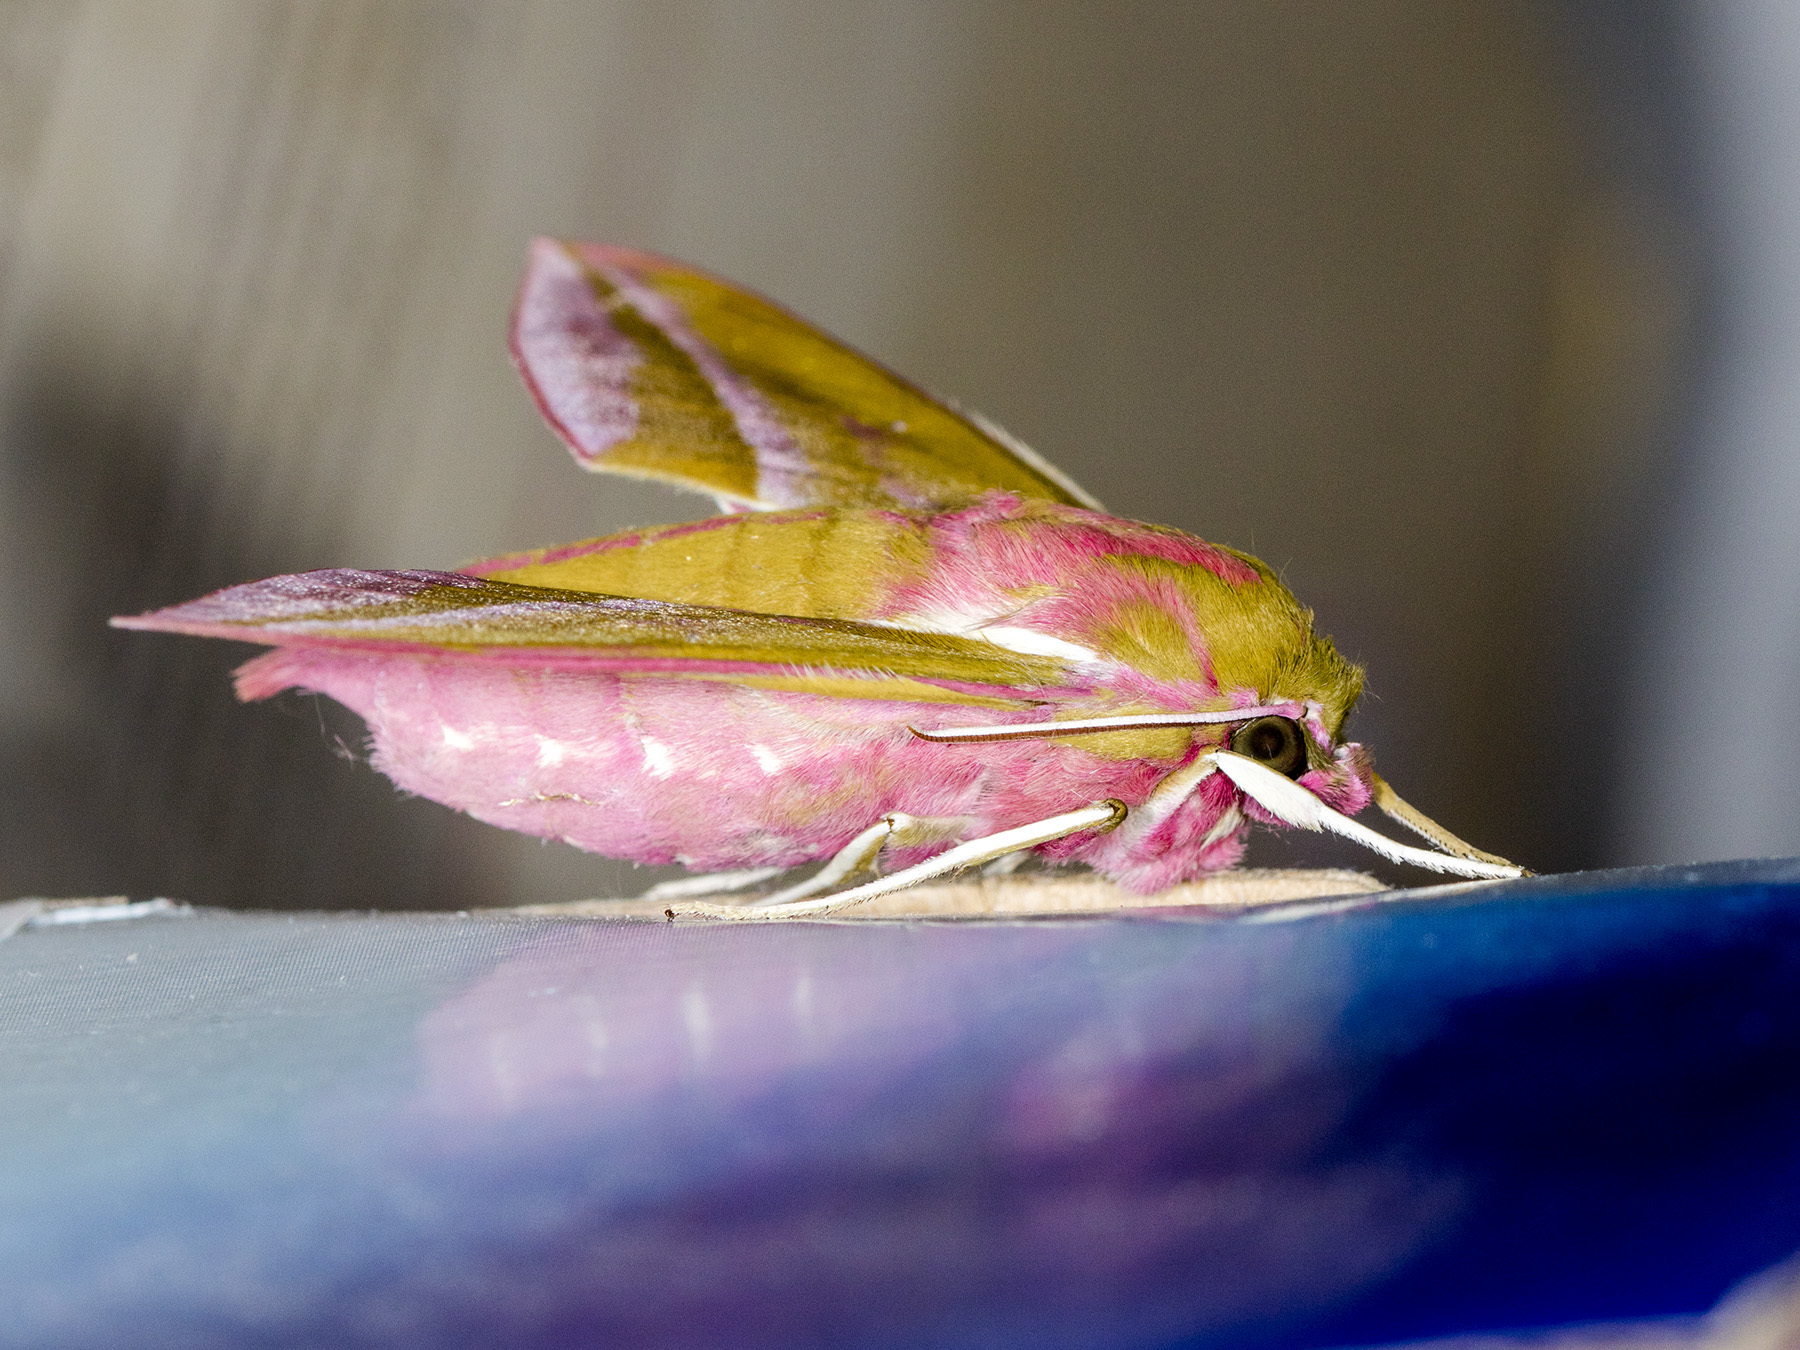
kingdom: Animalia
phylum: Arthropoda
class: Insecta
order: Lepidoptera
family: Sphingidae
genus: Deilephila
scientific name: Deilephila elpenor
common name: Elephant hawk-moth
